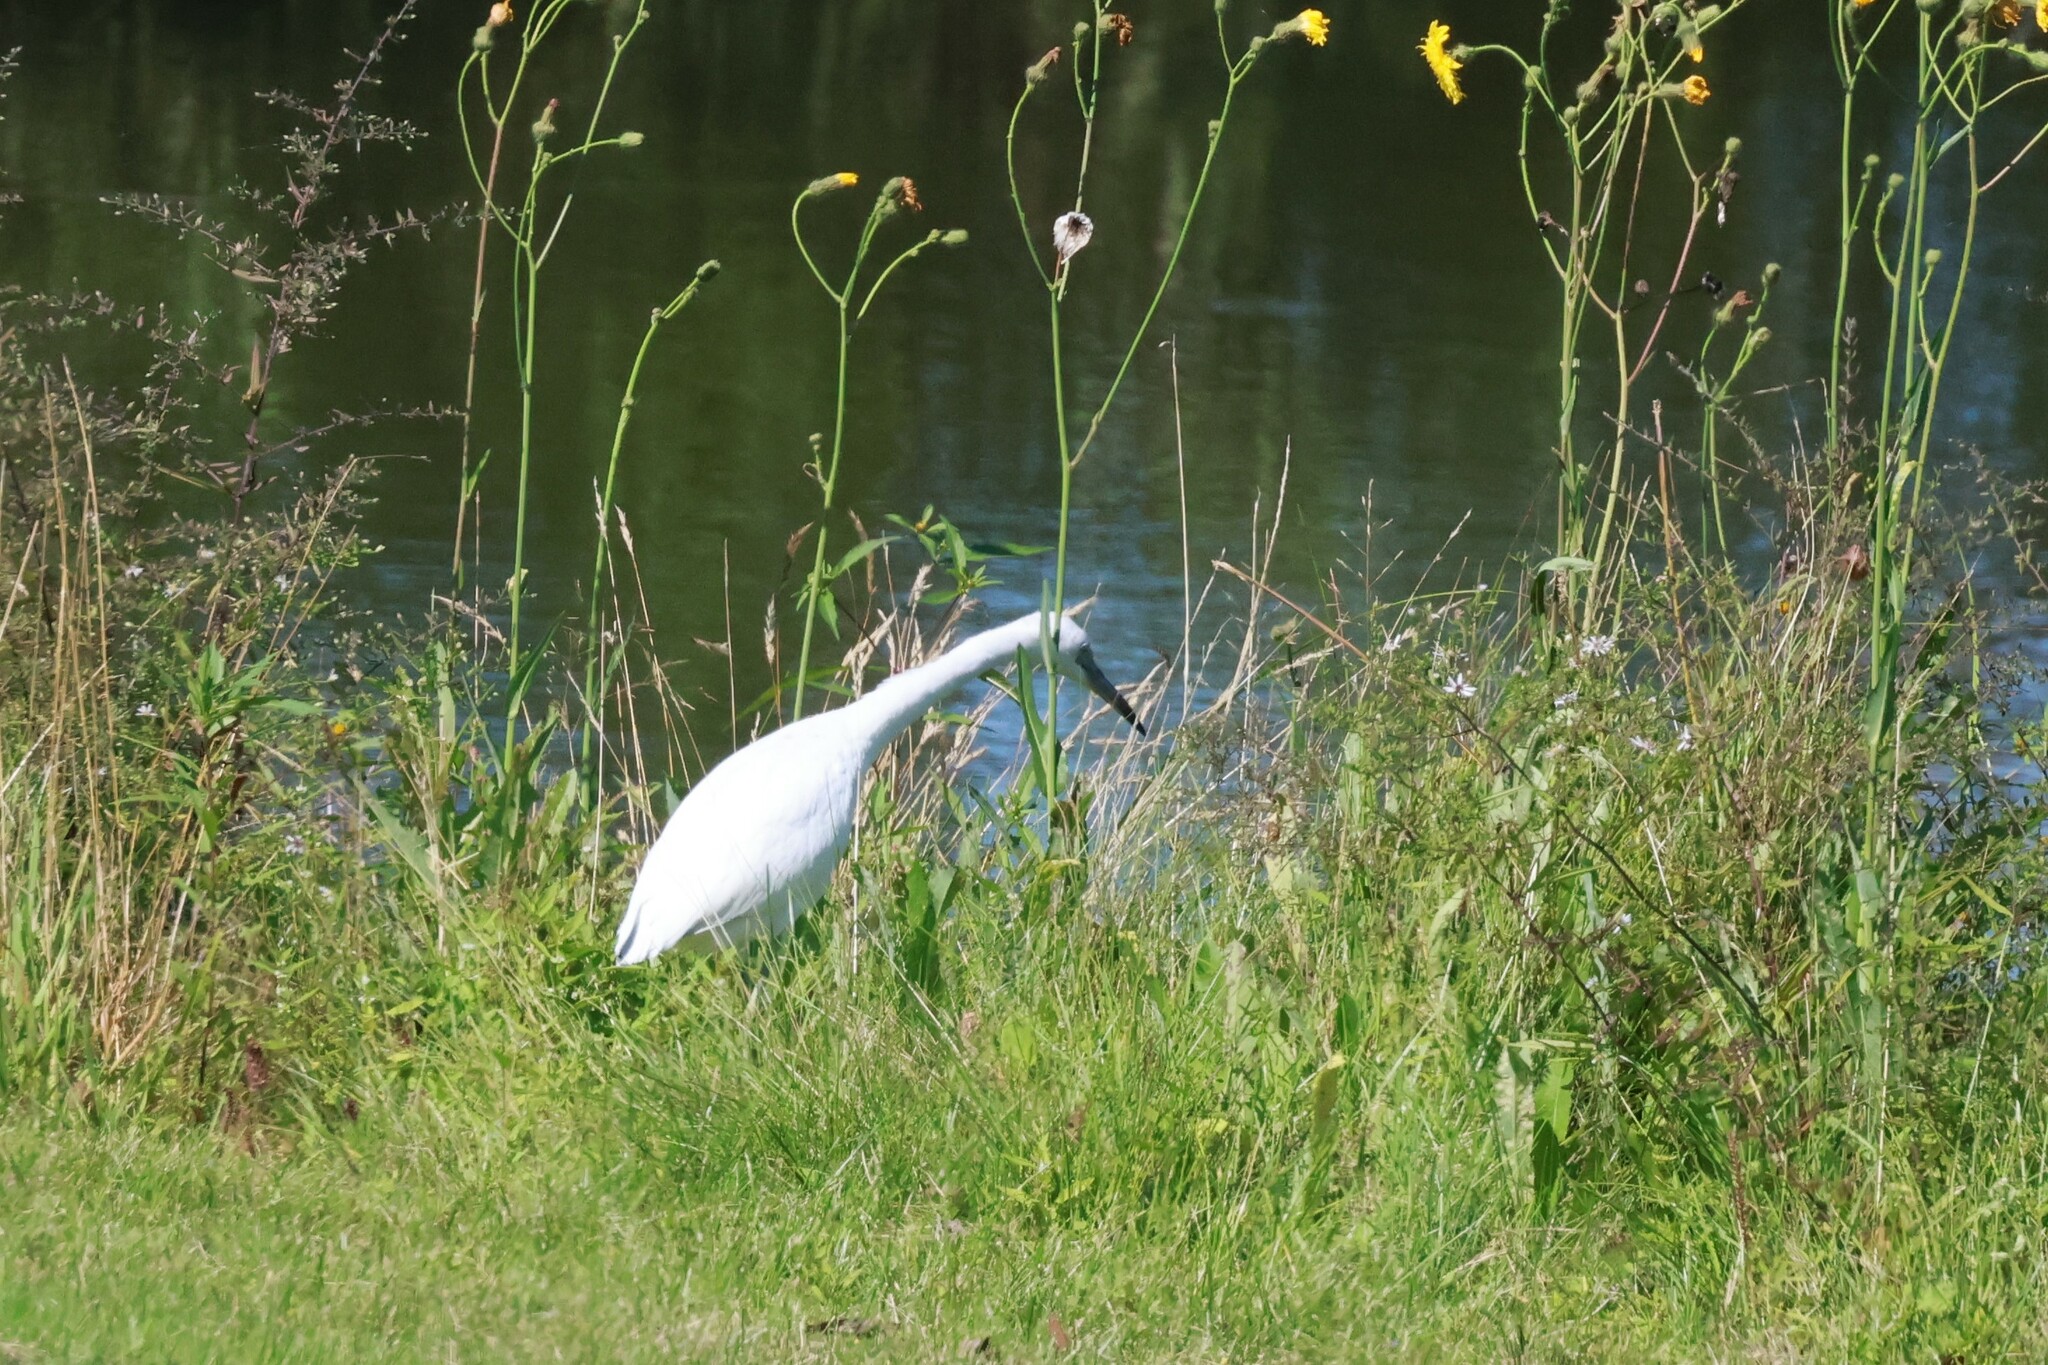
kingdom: Animalia
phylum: Chordata
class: Aves
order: Pelecaniformes
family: Ardeidae
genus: Egretta
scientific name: Egretta caerulea
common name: Little blue heron
